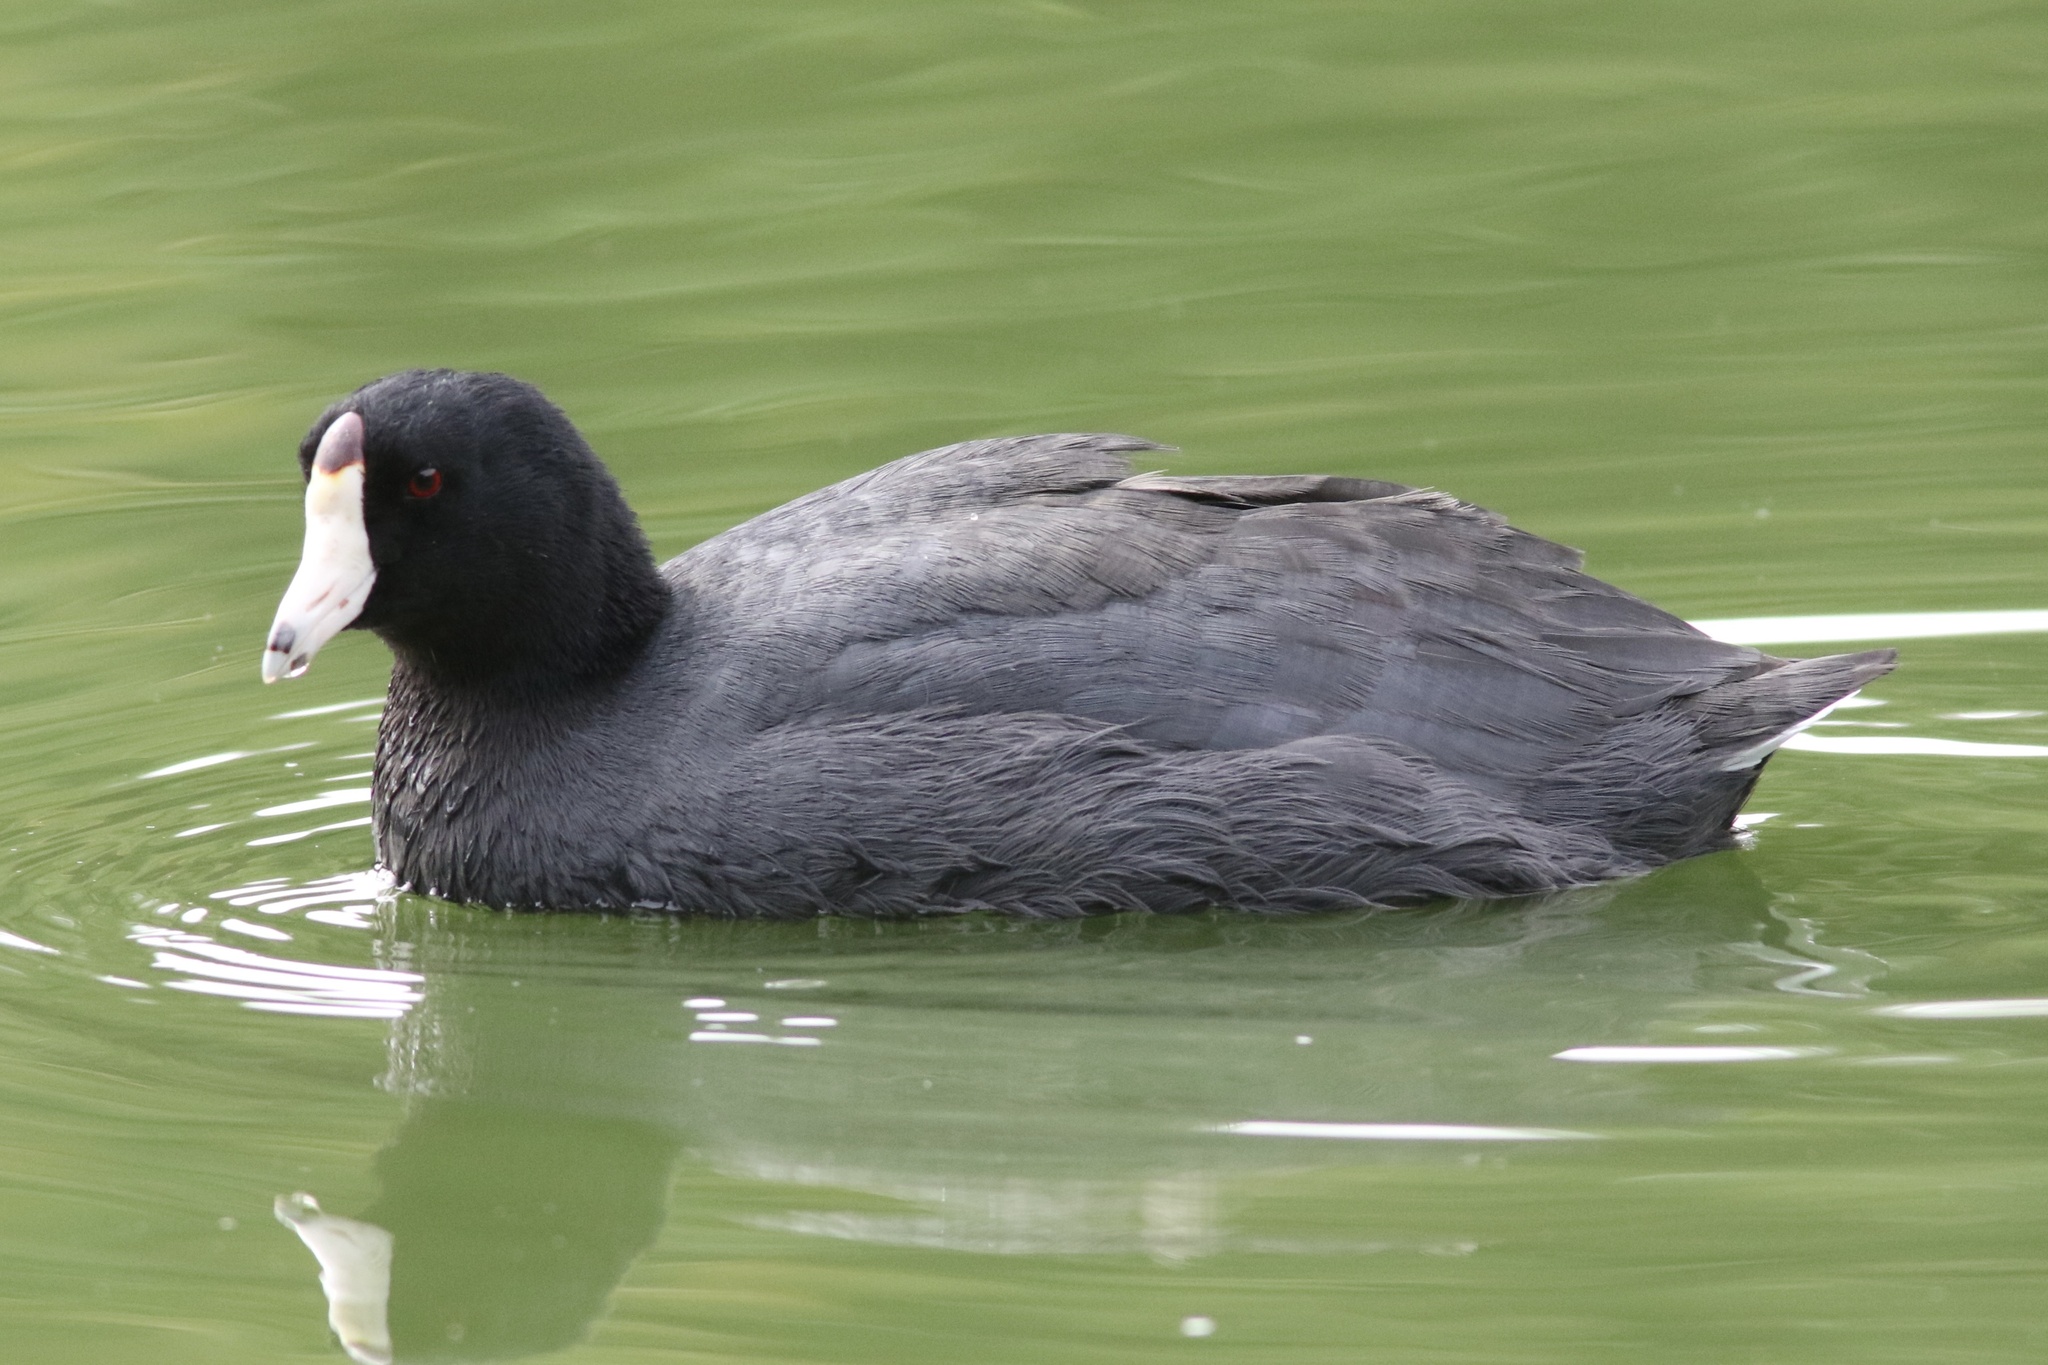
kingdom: Animalia
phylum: Chordata
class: Aves
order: Gruiformes
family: Rallidae
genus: Fulica
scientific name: Fulica americana
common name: American coot
